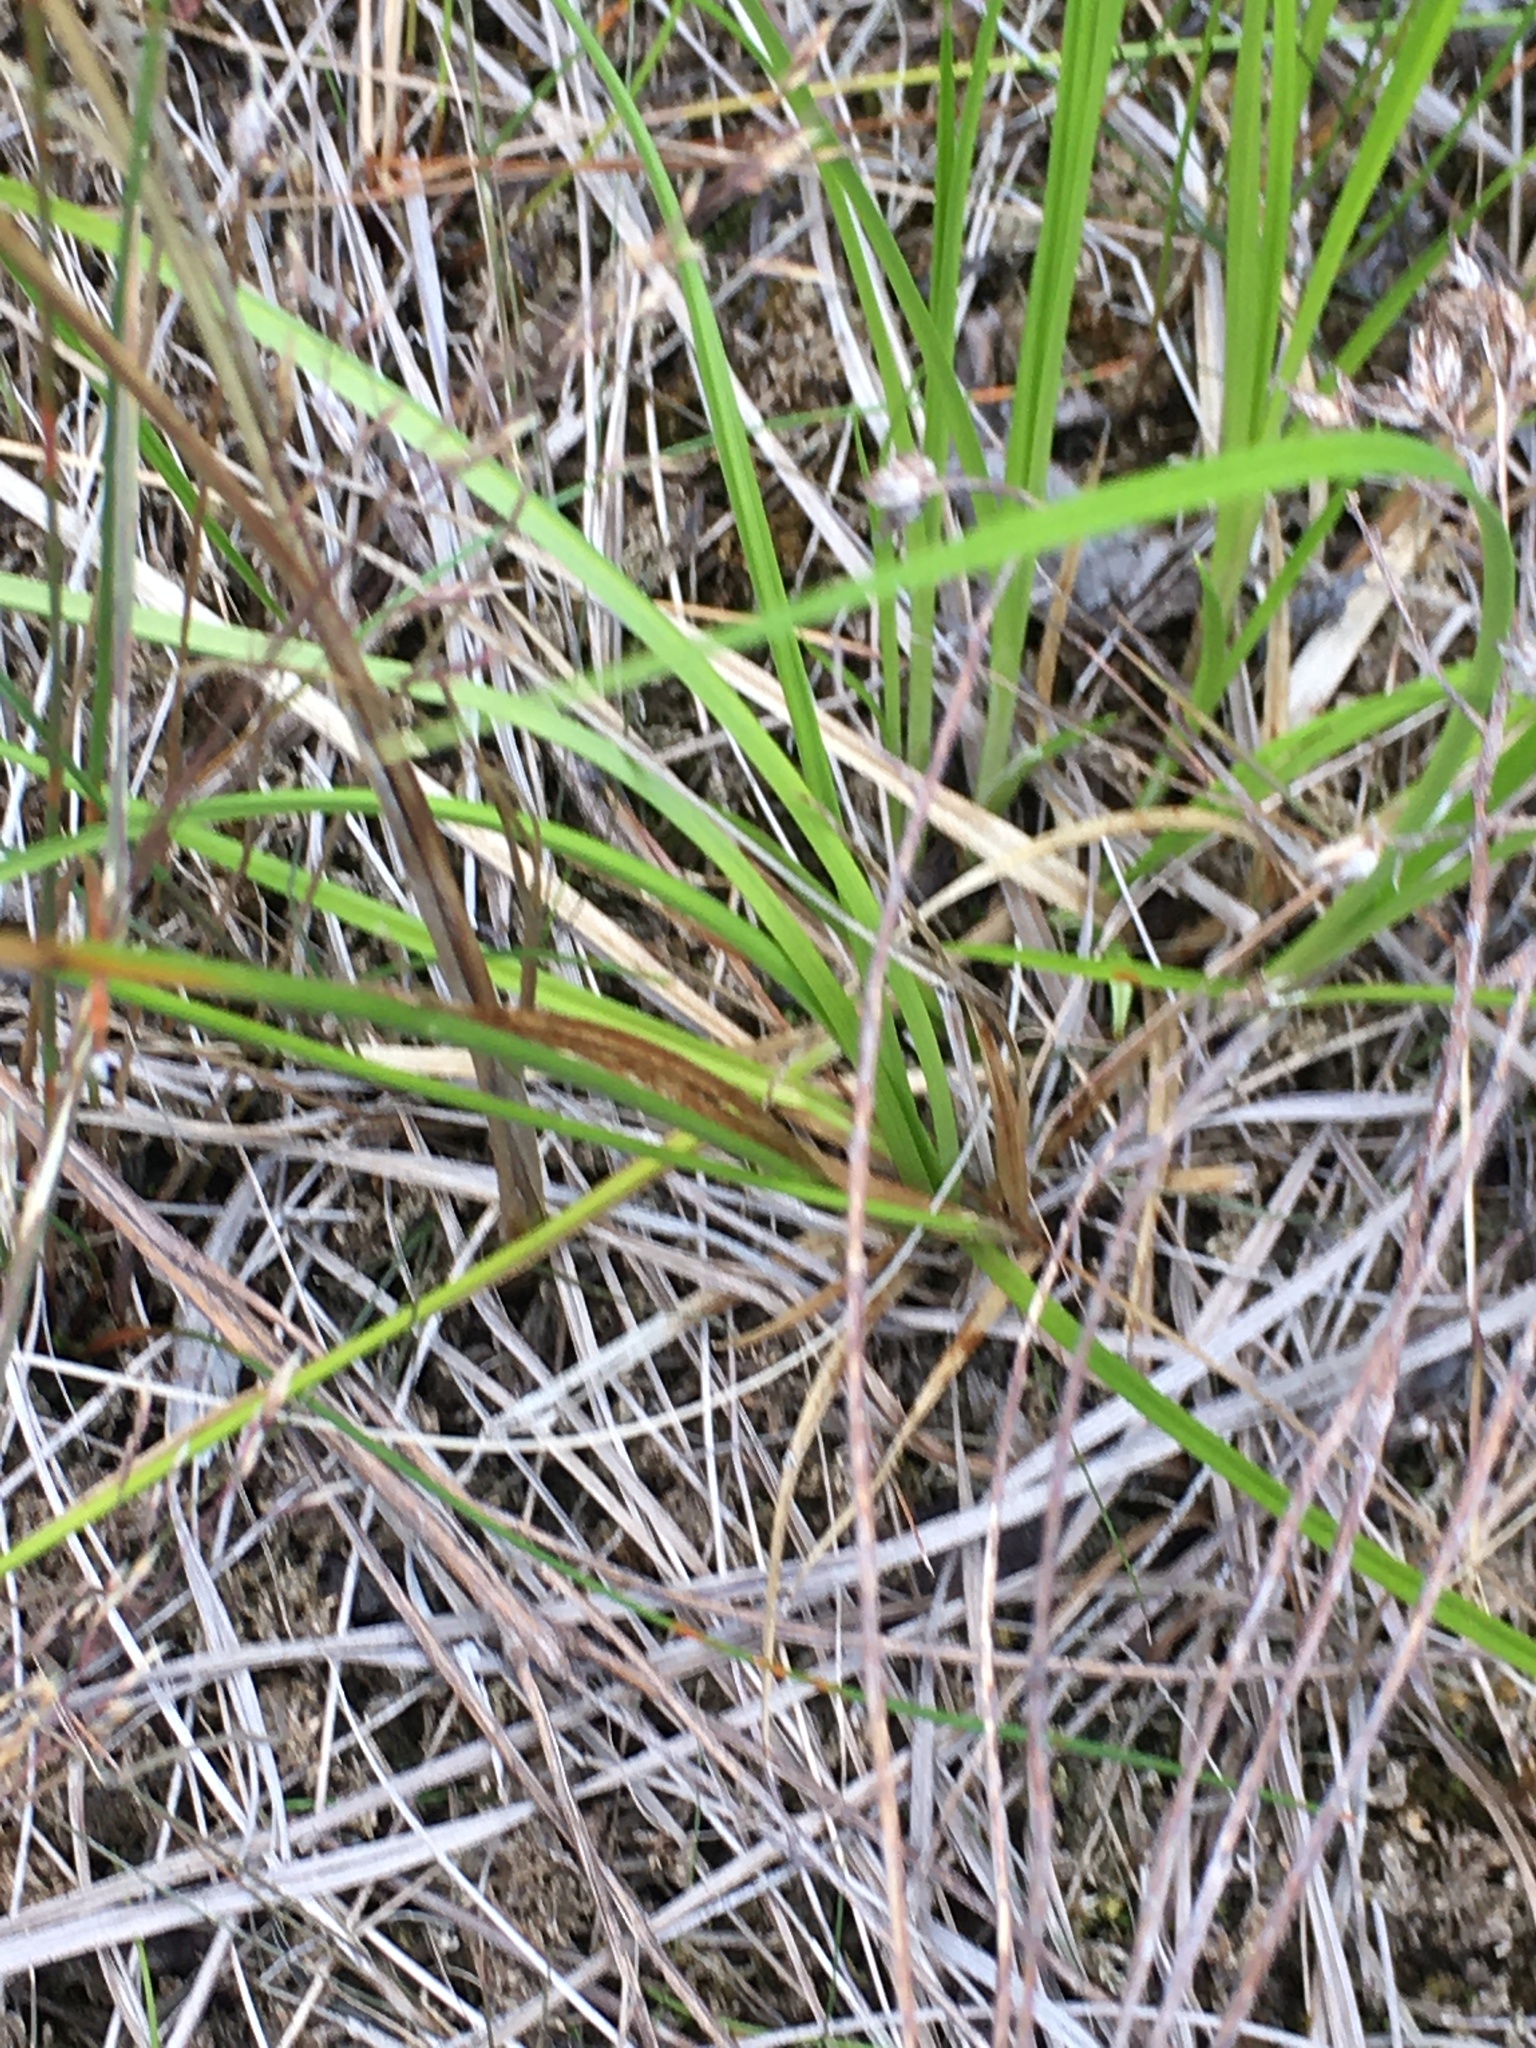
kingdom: Plantae
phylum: Tracheophyta
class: Liliopsida
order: Poales
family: Cyperaceae
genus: Carex
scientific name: Carex cryptolepis
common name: Northeastern sedge
